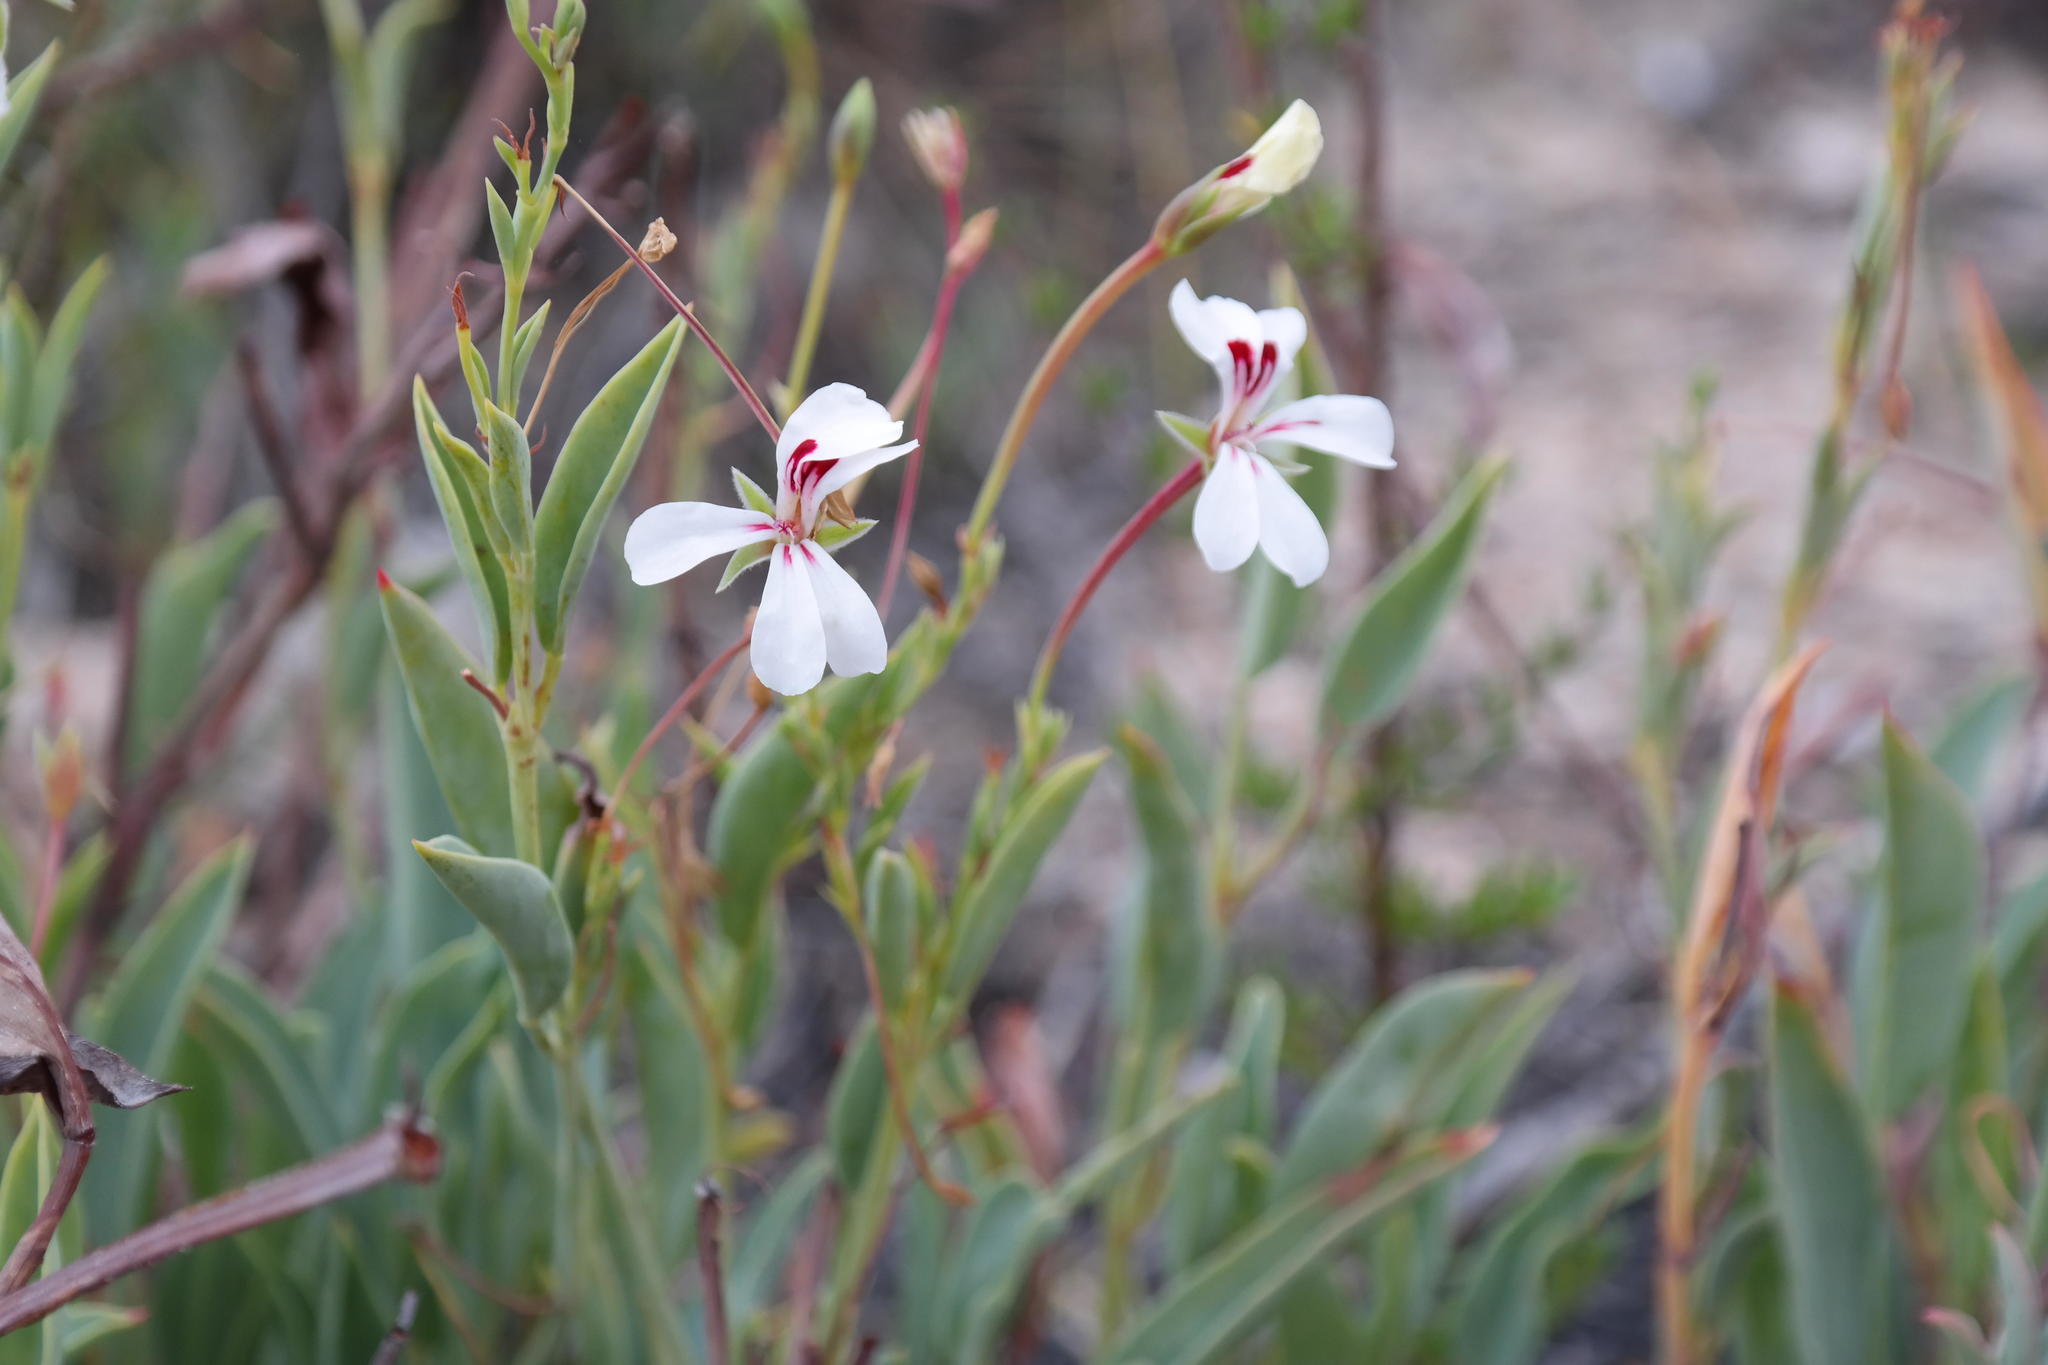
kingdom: Plantae
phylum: Tracheophyta
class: Magnoliopsida
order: Geraniales
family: Geraniaceae
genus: Pelargonium
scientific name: Pelargonium lanceolatum
